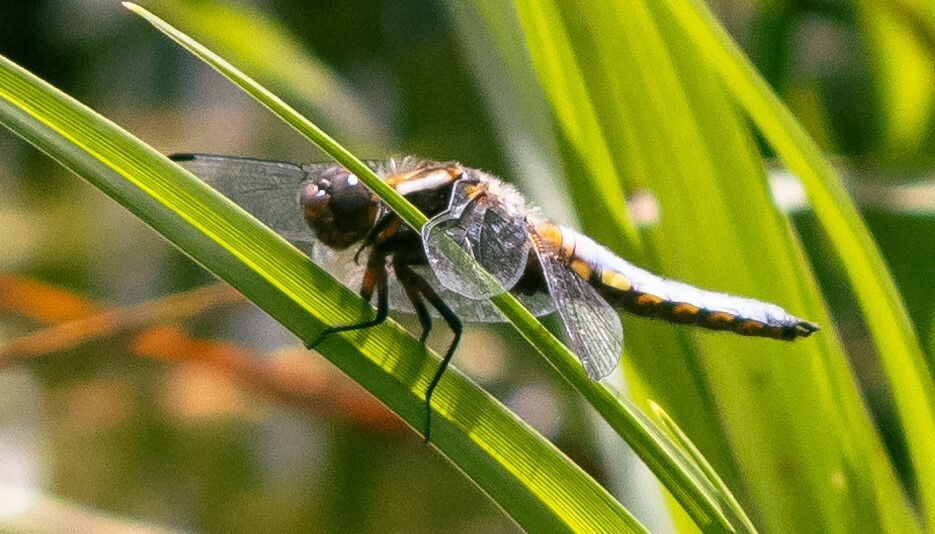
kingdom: Animalia
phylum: Arthropoda
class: Insecta
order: Odonata
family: Libellulidae
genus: Libellula
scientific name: Libellula depressa
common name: Broad-bodied chaser
